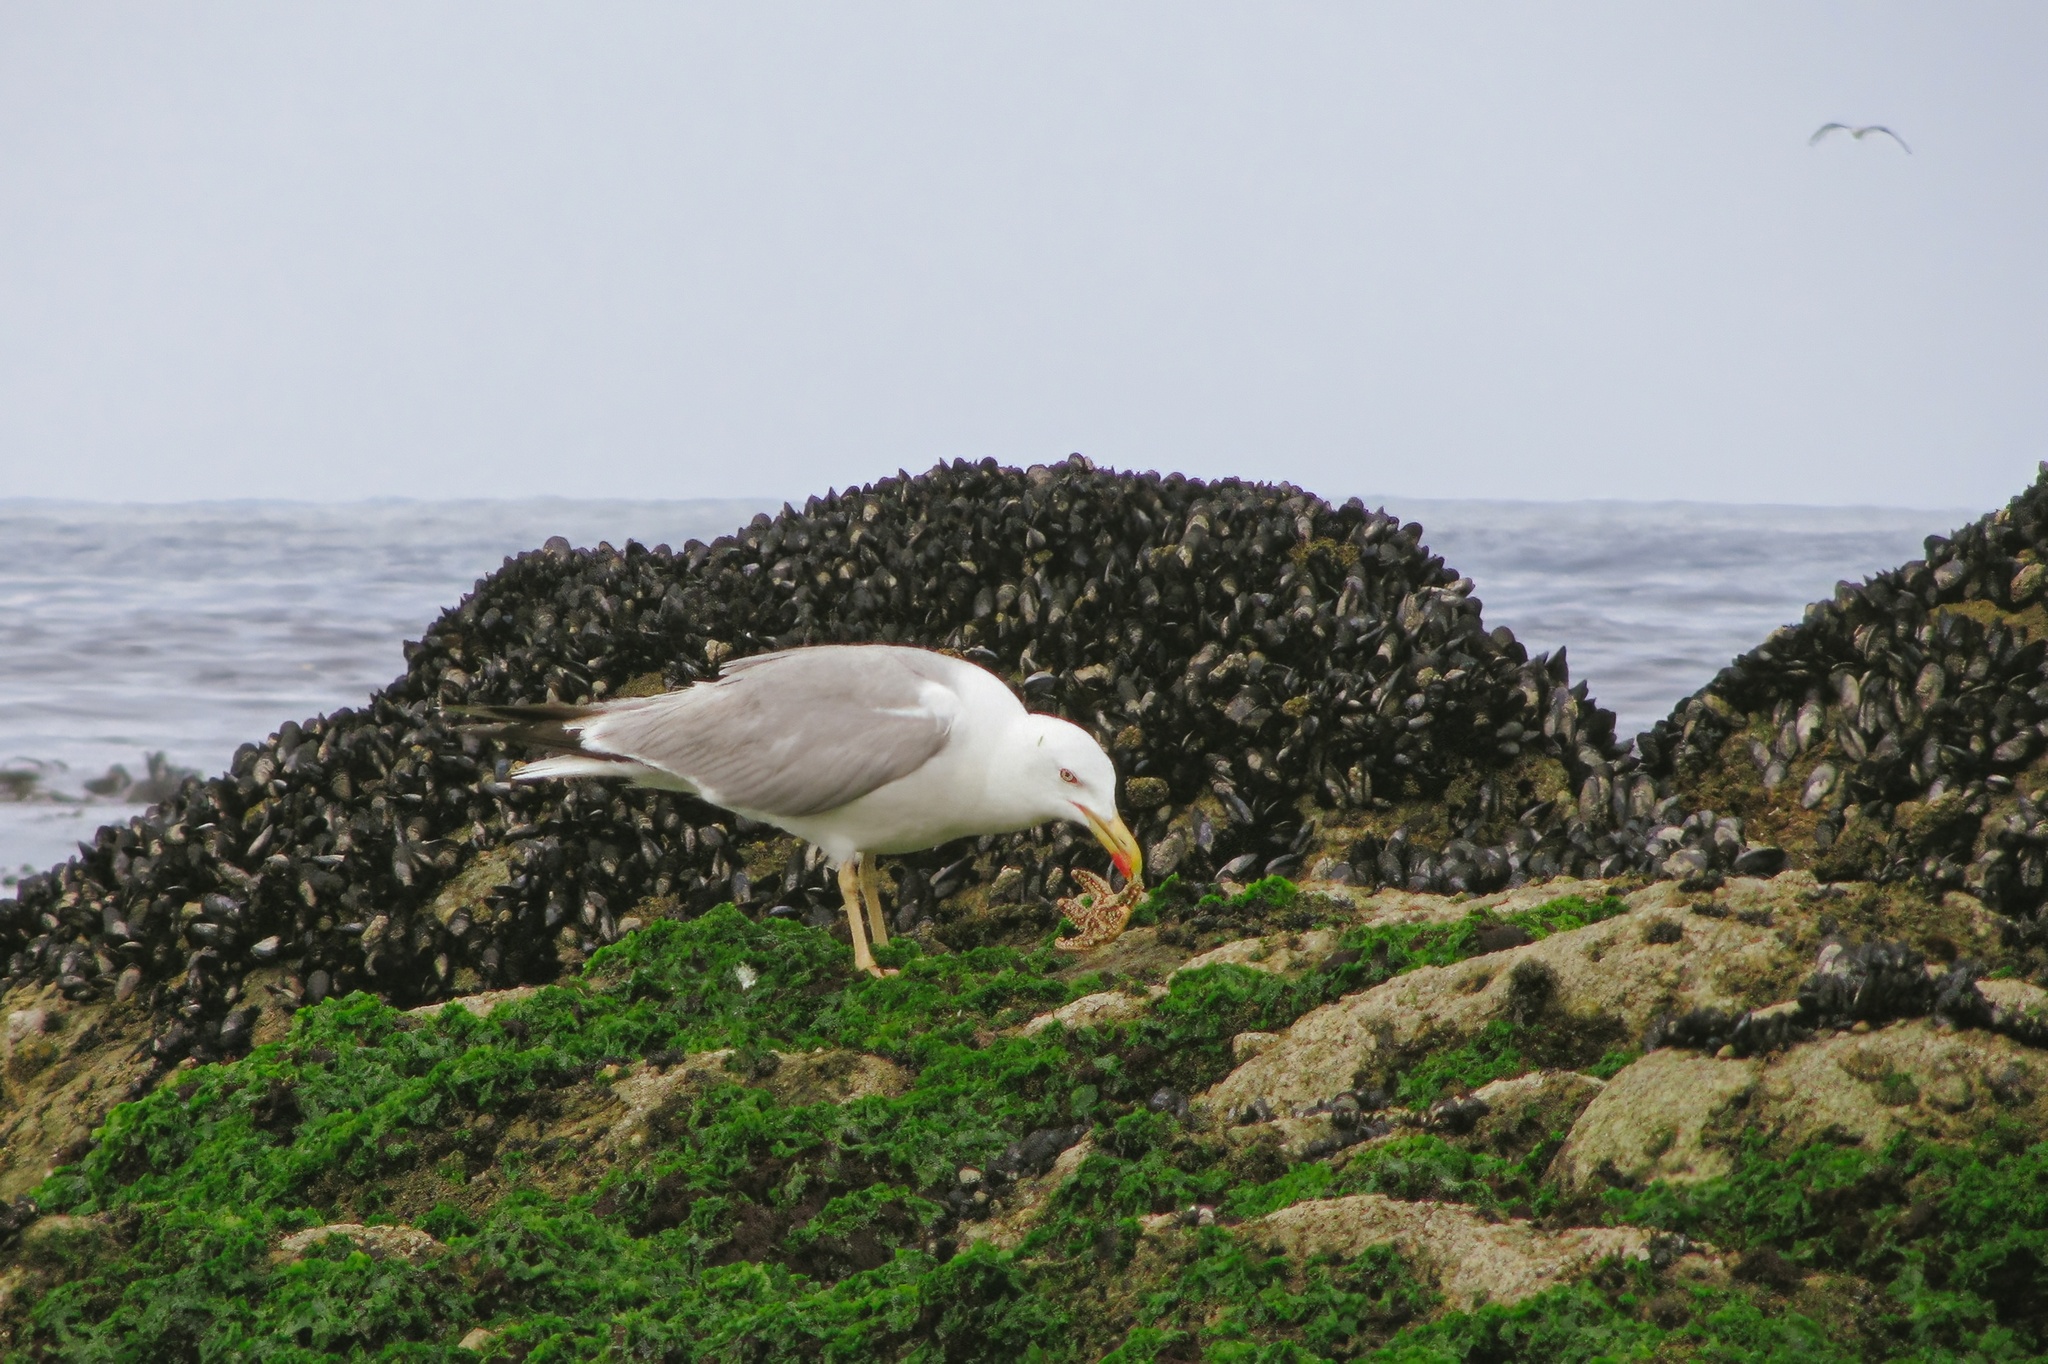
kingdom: Animalia
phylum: Chordata
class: Aves
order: Charadriiformes
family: Laridae
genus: Larus
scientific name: Larus michahellis
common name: Yellow-legged gull
